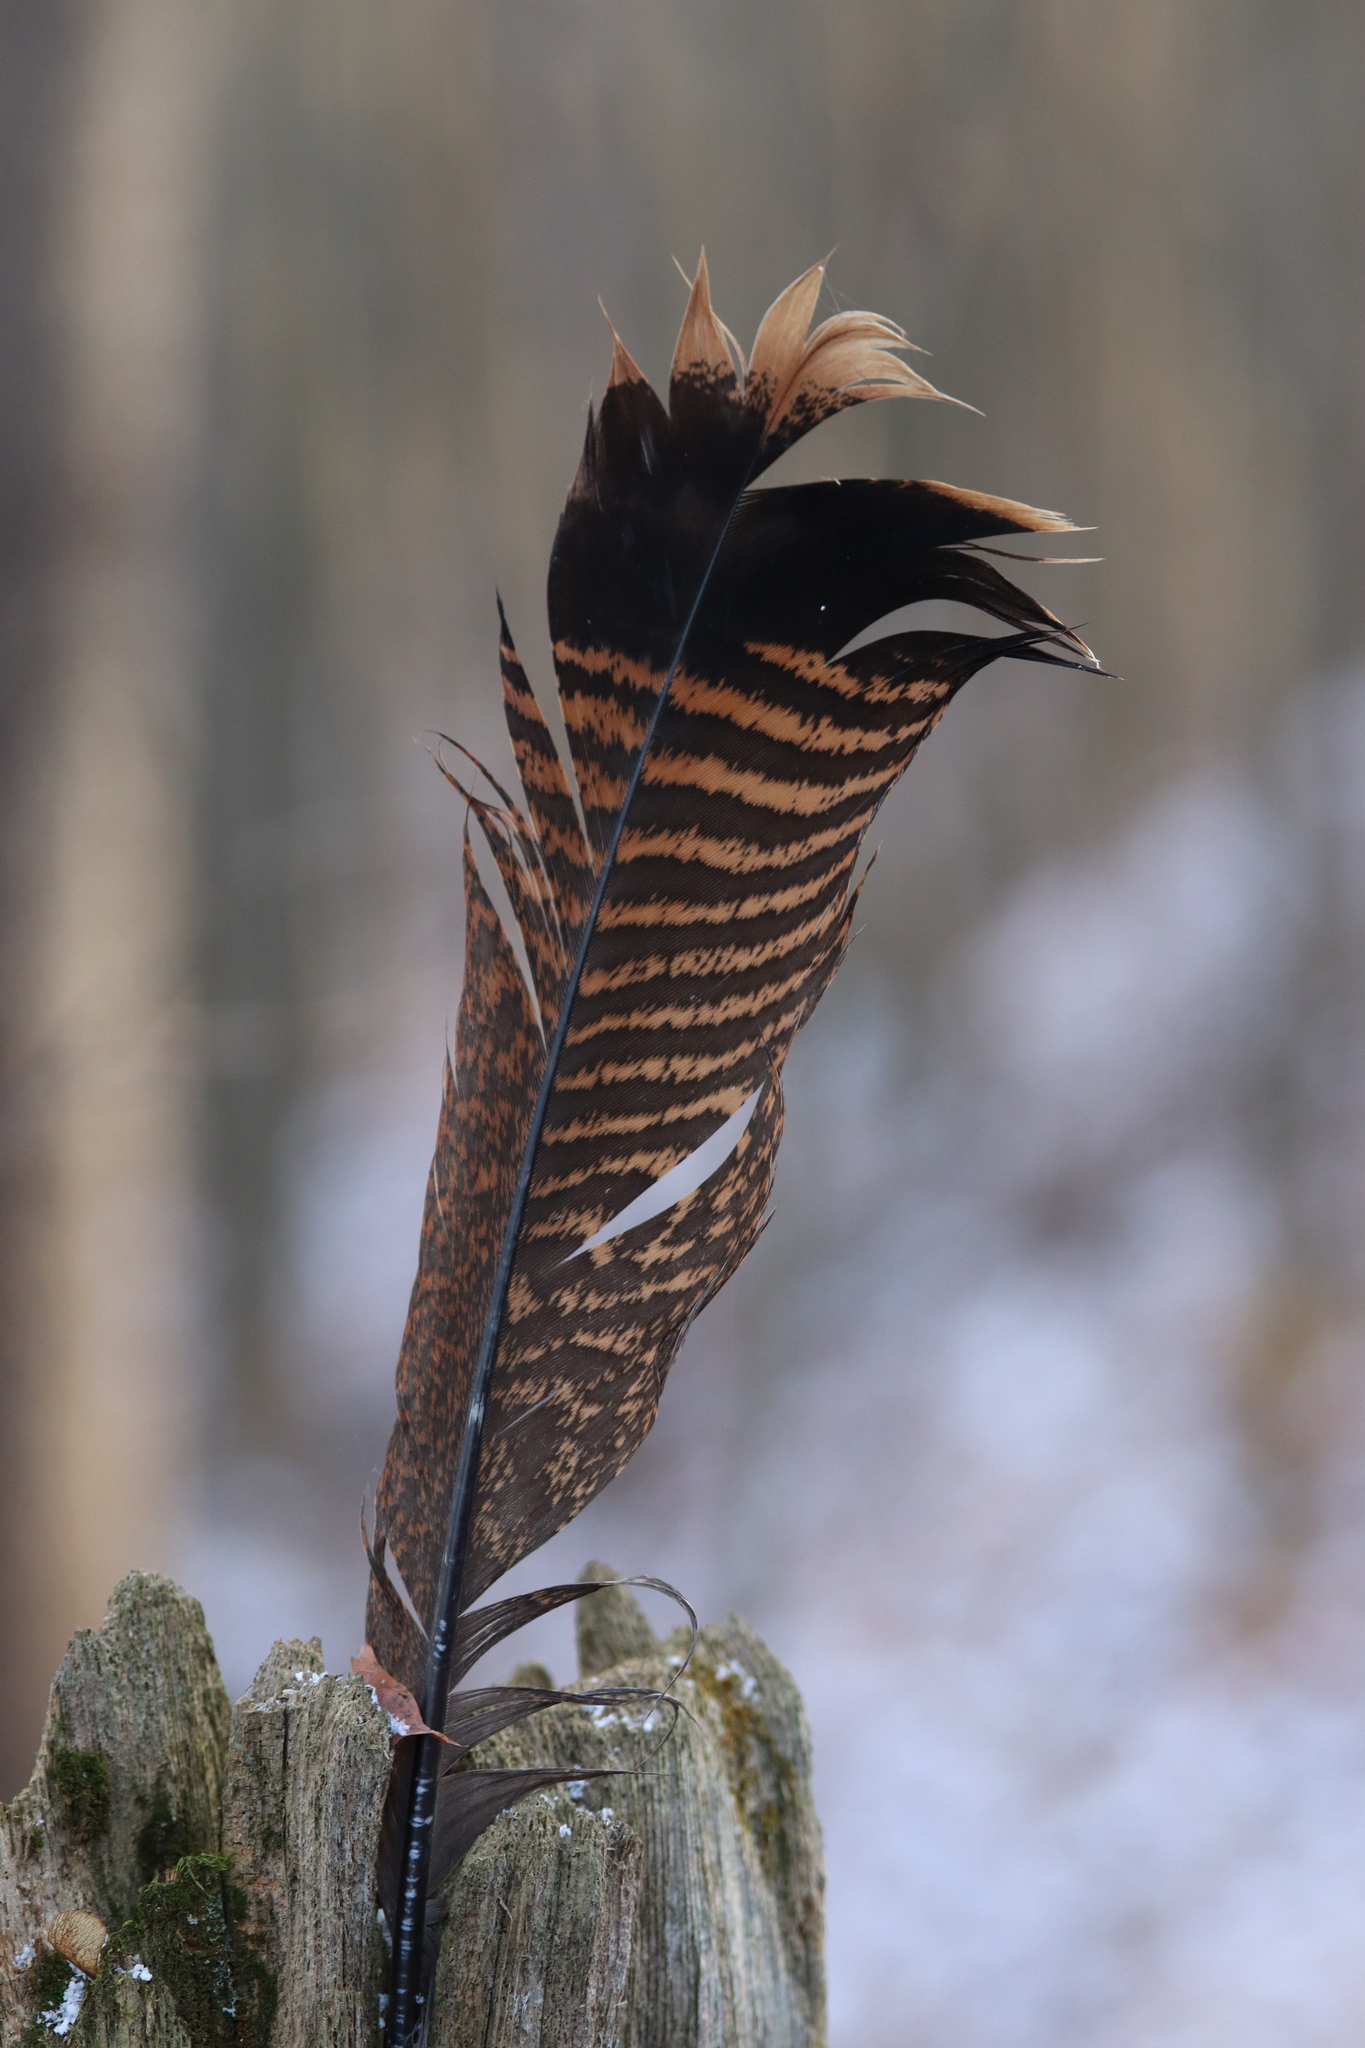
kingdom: Animalia
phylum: Chordata
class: Aves
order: Galliformes
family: Phasianidae
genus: Meleagris
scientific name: Meleagris gallopavo
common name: Wild turkey
